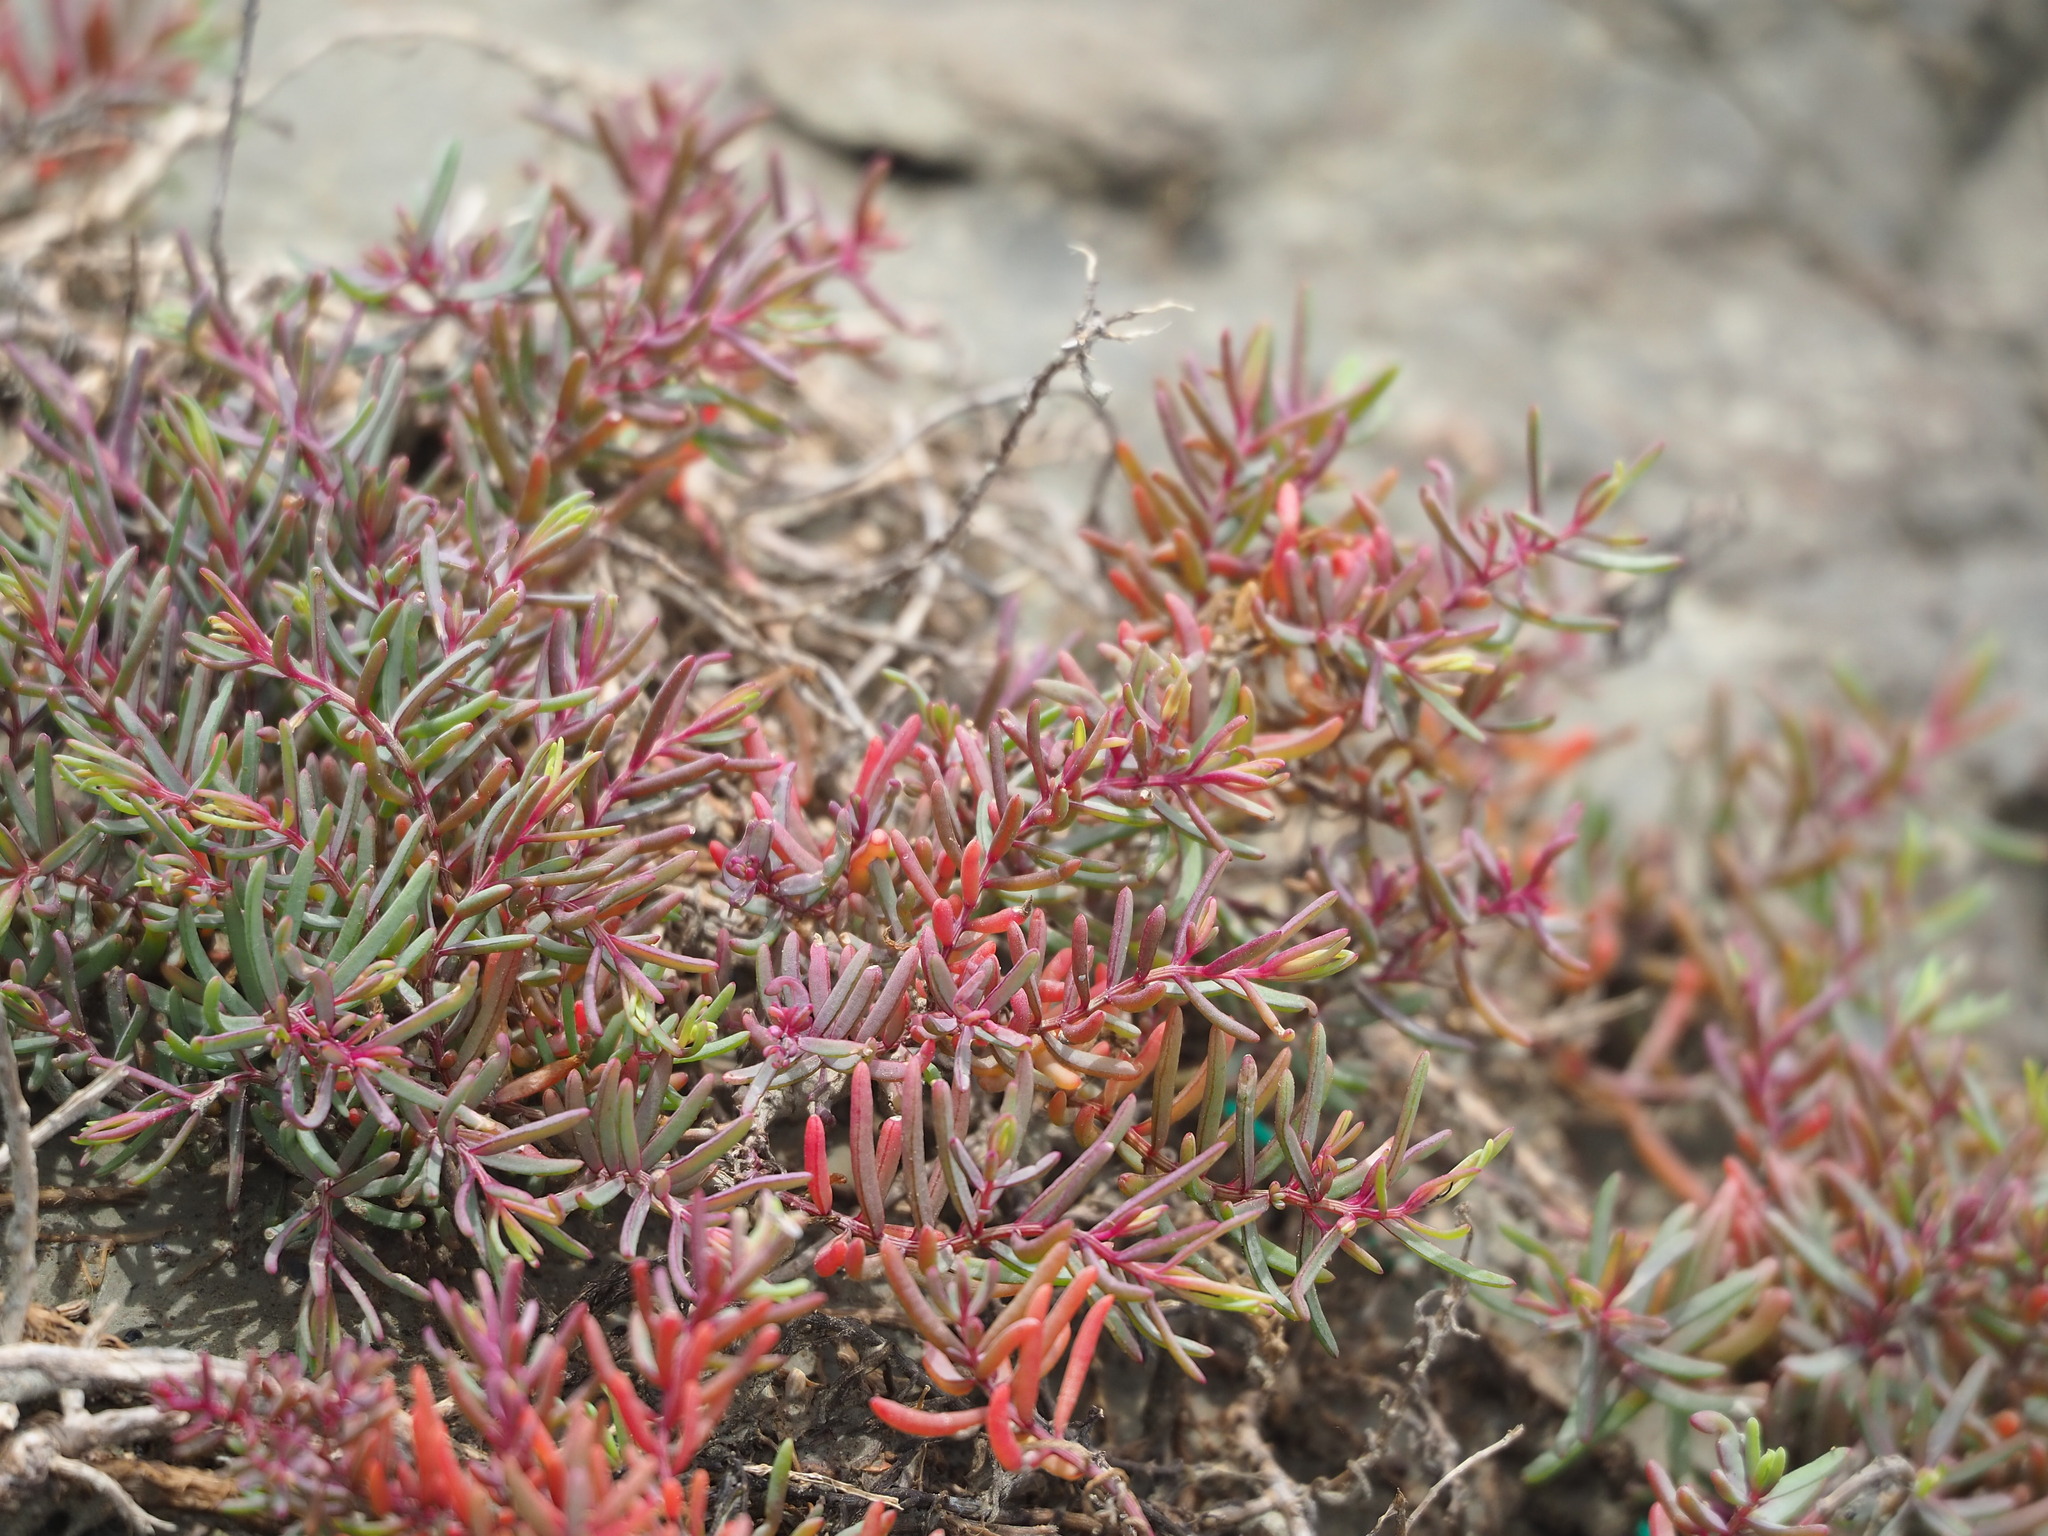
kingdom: Plantae
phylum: Tracheophyta
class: Magnoliopsida
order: Caryophyllales
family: Amaranthaceae
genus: Suaeda
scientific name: Suaeda maritima
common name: Annual sea-blite
